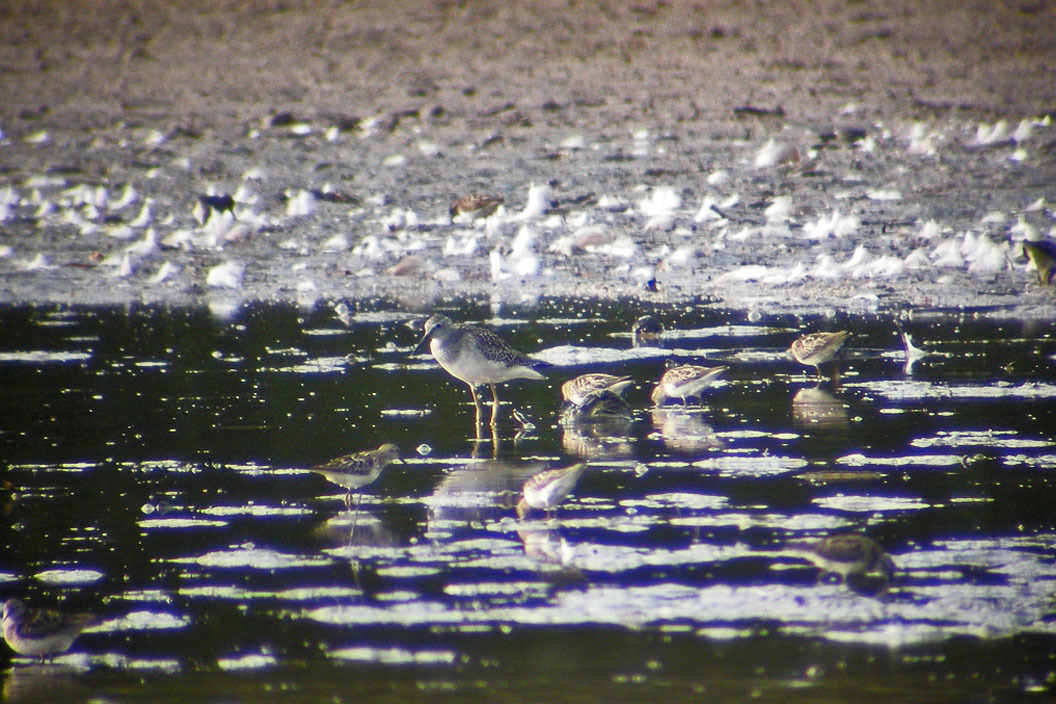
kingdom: Animalia
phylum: Chordata
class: Aves
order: Charadriiformes
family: Scolopacidae
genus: Tringa
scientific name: Tringa flavipes
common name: Lesser yellowlegs
